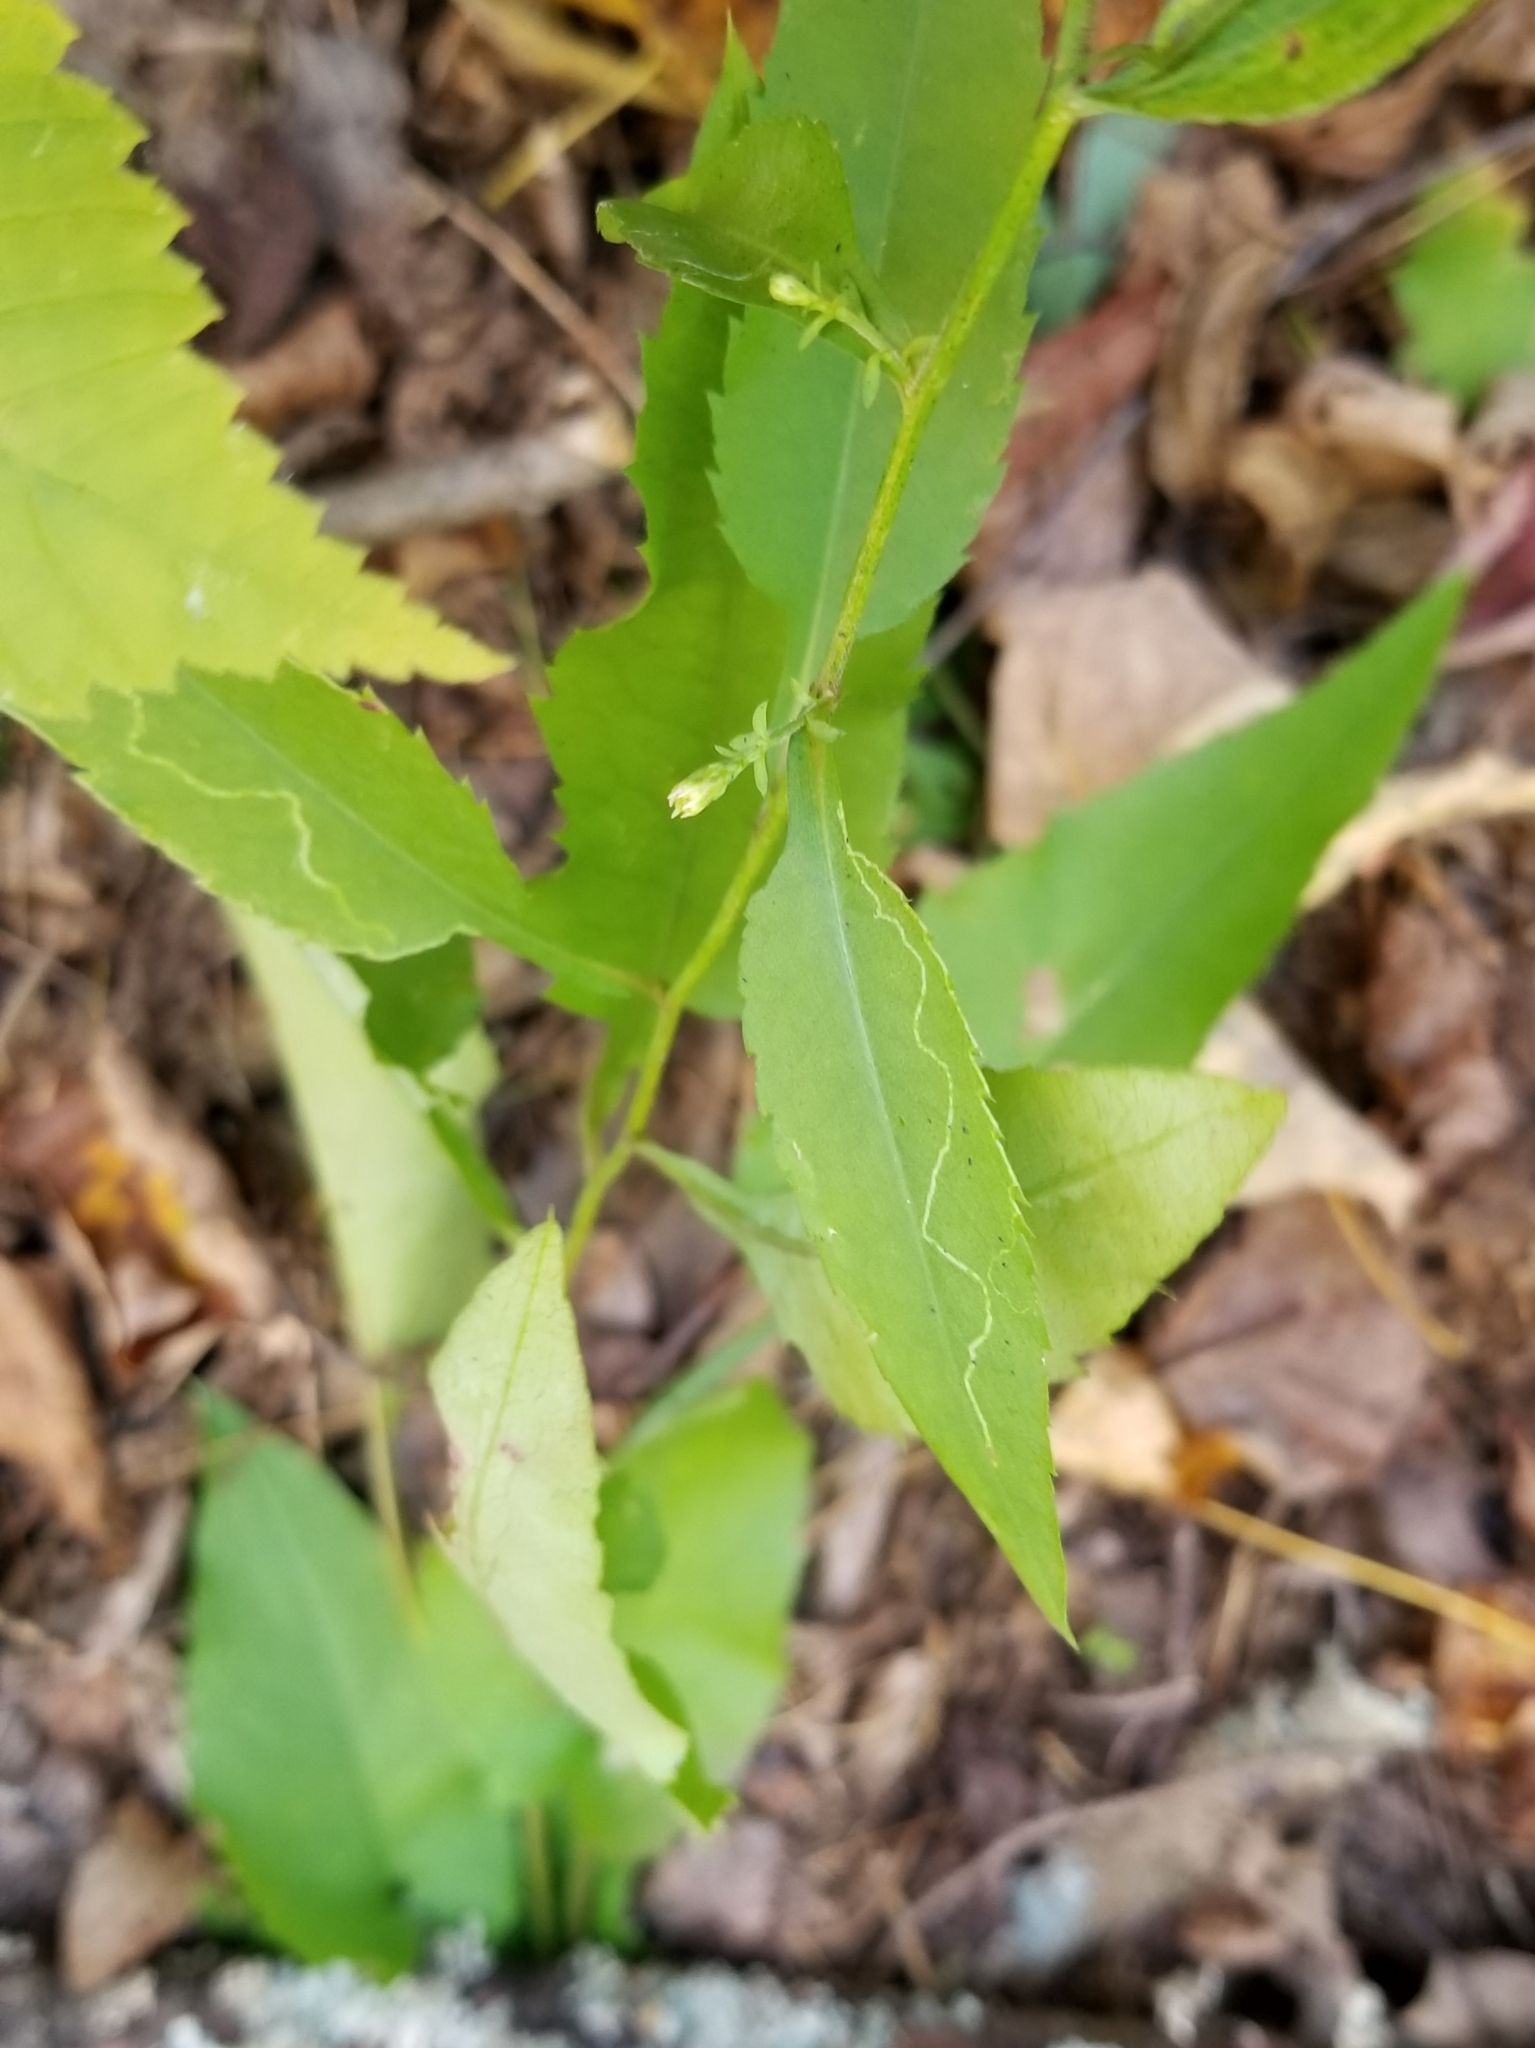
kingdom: Plantae
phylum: Tracheophyta
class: Magnoliopsida
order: Asterales
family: Asteraceae
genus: Symphyotrichum
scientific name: Symphyotrichum cordifolium
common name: Beeweed
